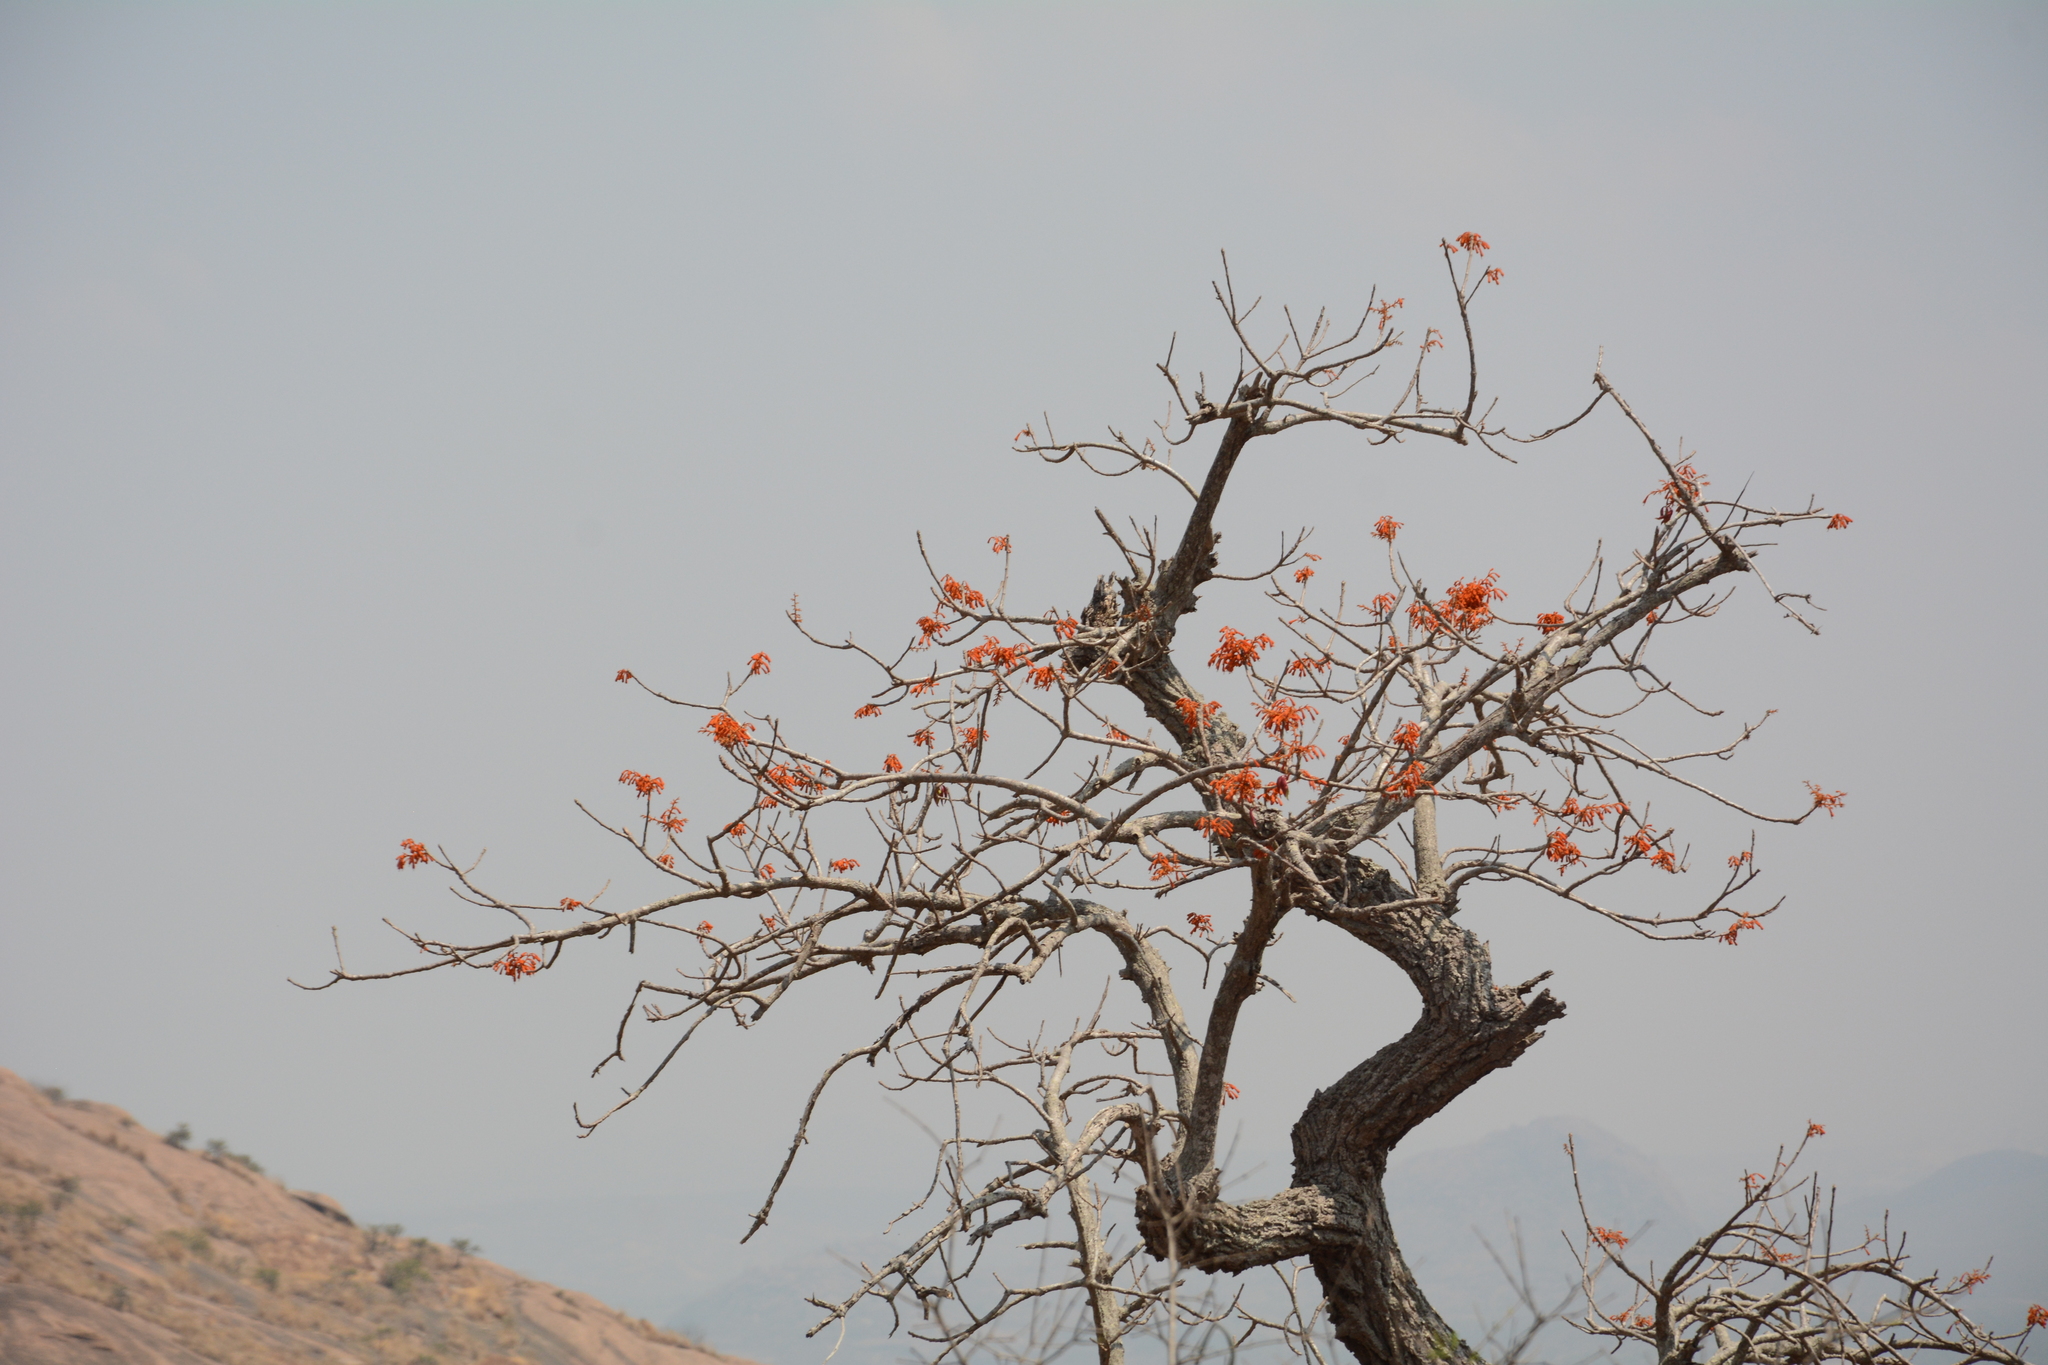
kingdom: Plantae
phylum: Tracheophyta
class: Magnoliopsida
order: Malvales
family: Malvaceae
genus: Firmiana
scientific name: Firmiana colorata
